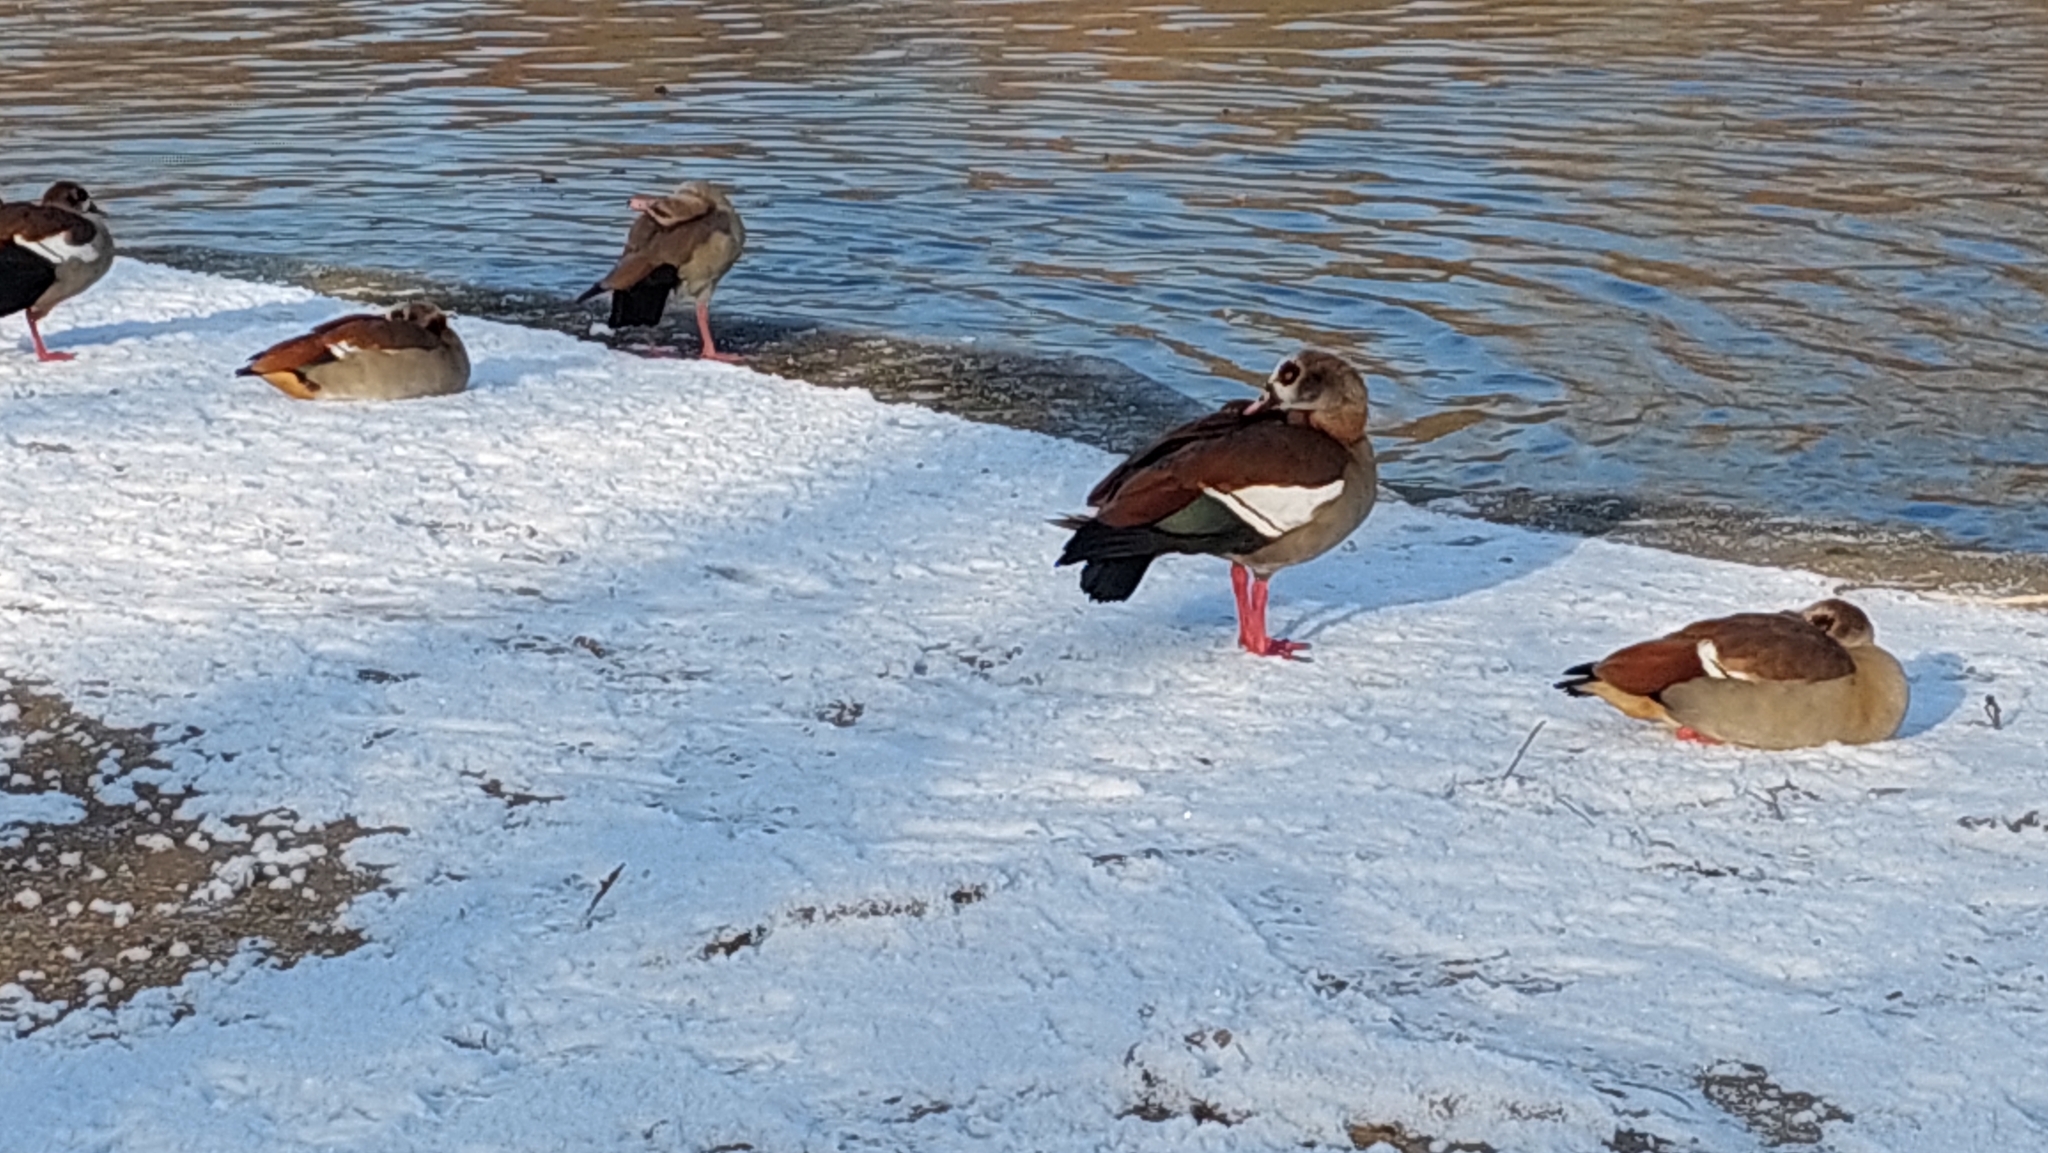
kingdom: Animalia
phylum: Chordata
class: Aves
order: Anseriformes
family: Anatidae
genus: Alopochen
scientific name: Alopochen aegyptiaca
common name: Egyptian goose
